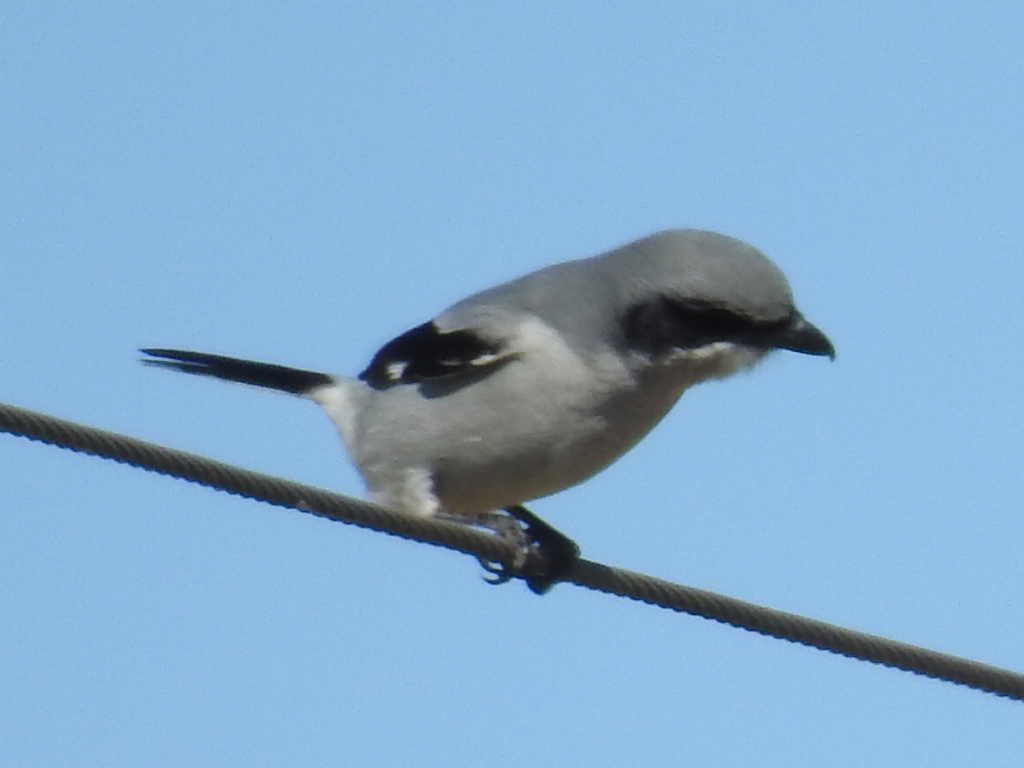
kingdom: Animalia
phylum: Chordata
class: Aves
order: Passeriformes
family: Laniidae
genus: Lanius
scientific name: Lanius ludovicianus
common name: Loggerhead shrike
